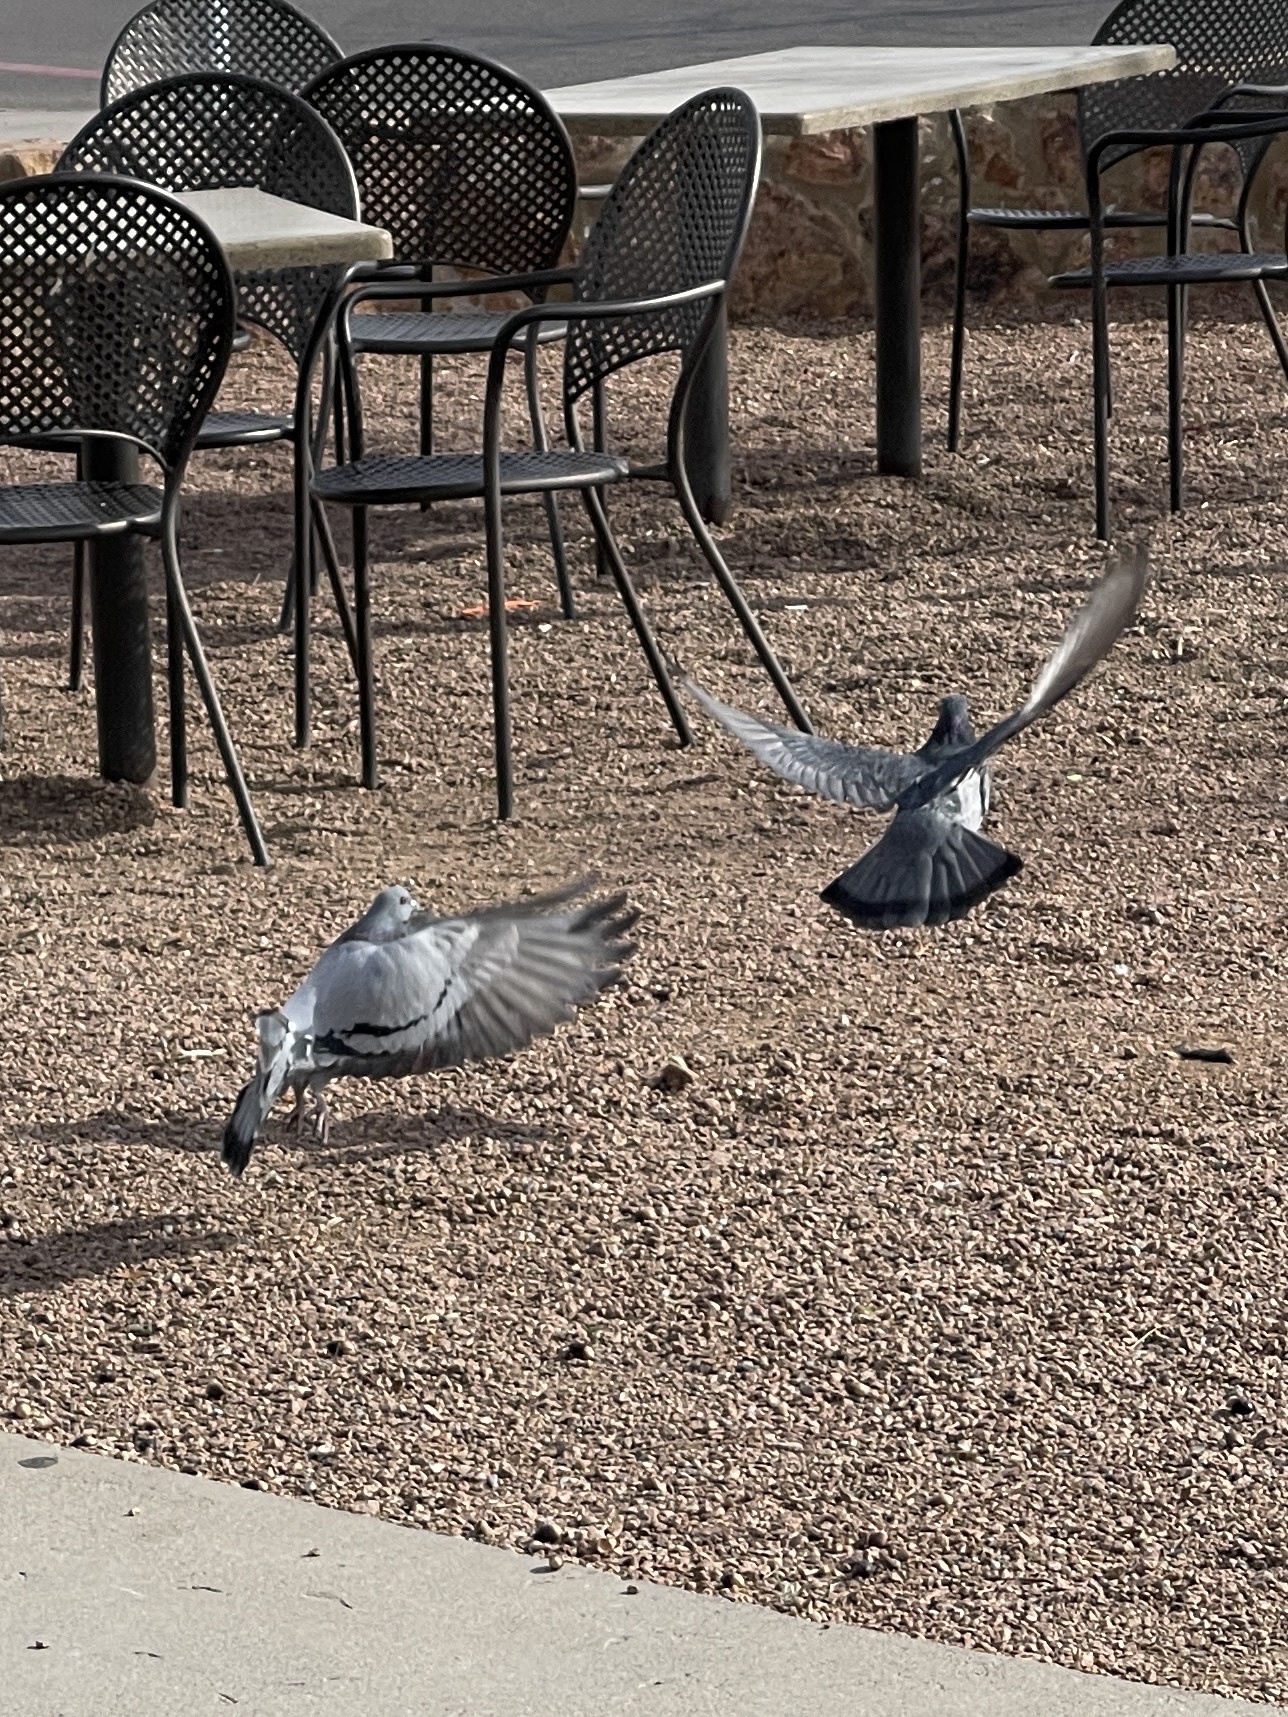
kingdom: Animalia
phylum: Chordata
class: Aves
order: Columbiformes
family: Columbidae
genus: Columba
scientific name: Columba livia
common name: Rock pigeon
